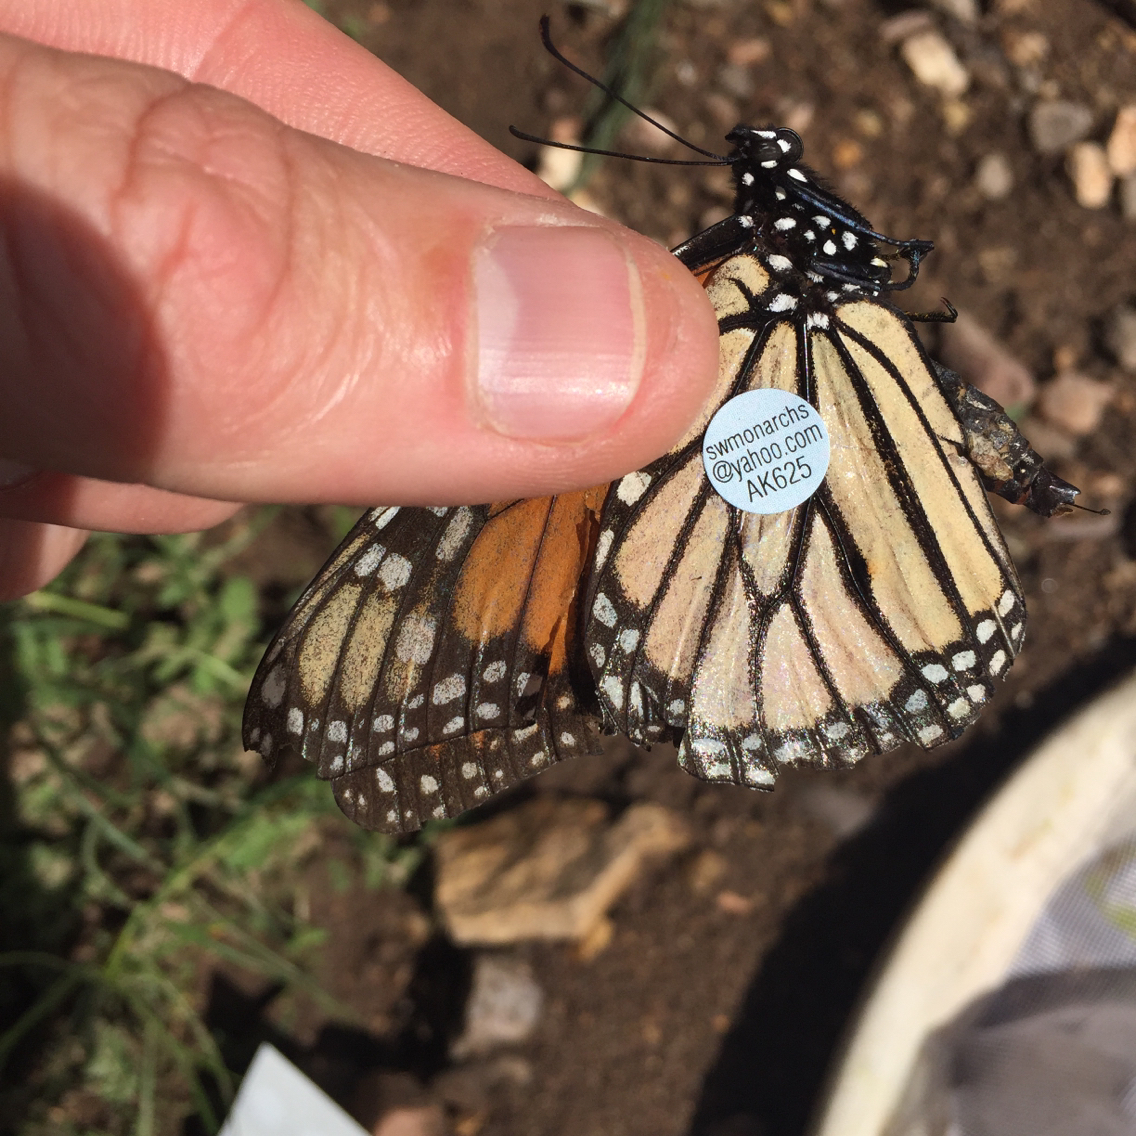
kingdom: Animalia
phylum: Arthropoda
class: Insecta
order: Lepidoptera
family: Nymphalidae
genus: Danaus
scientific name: Danaus plexippus
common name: Monarch
